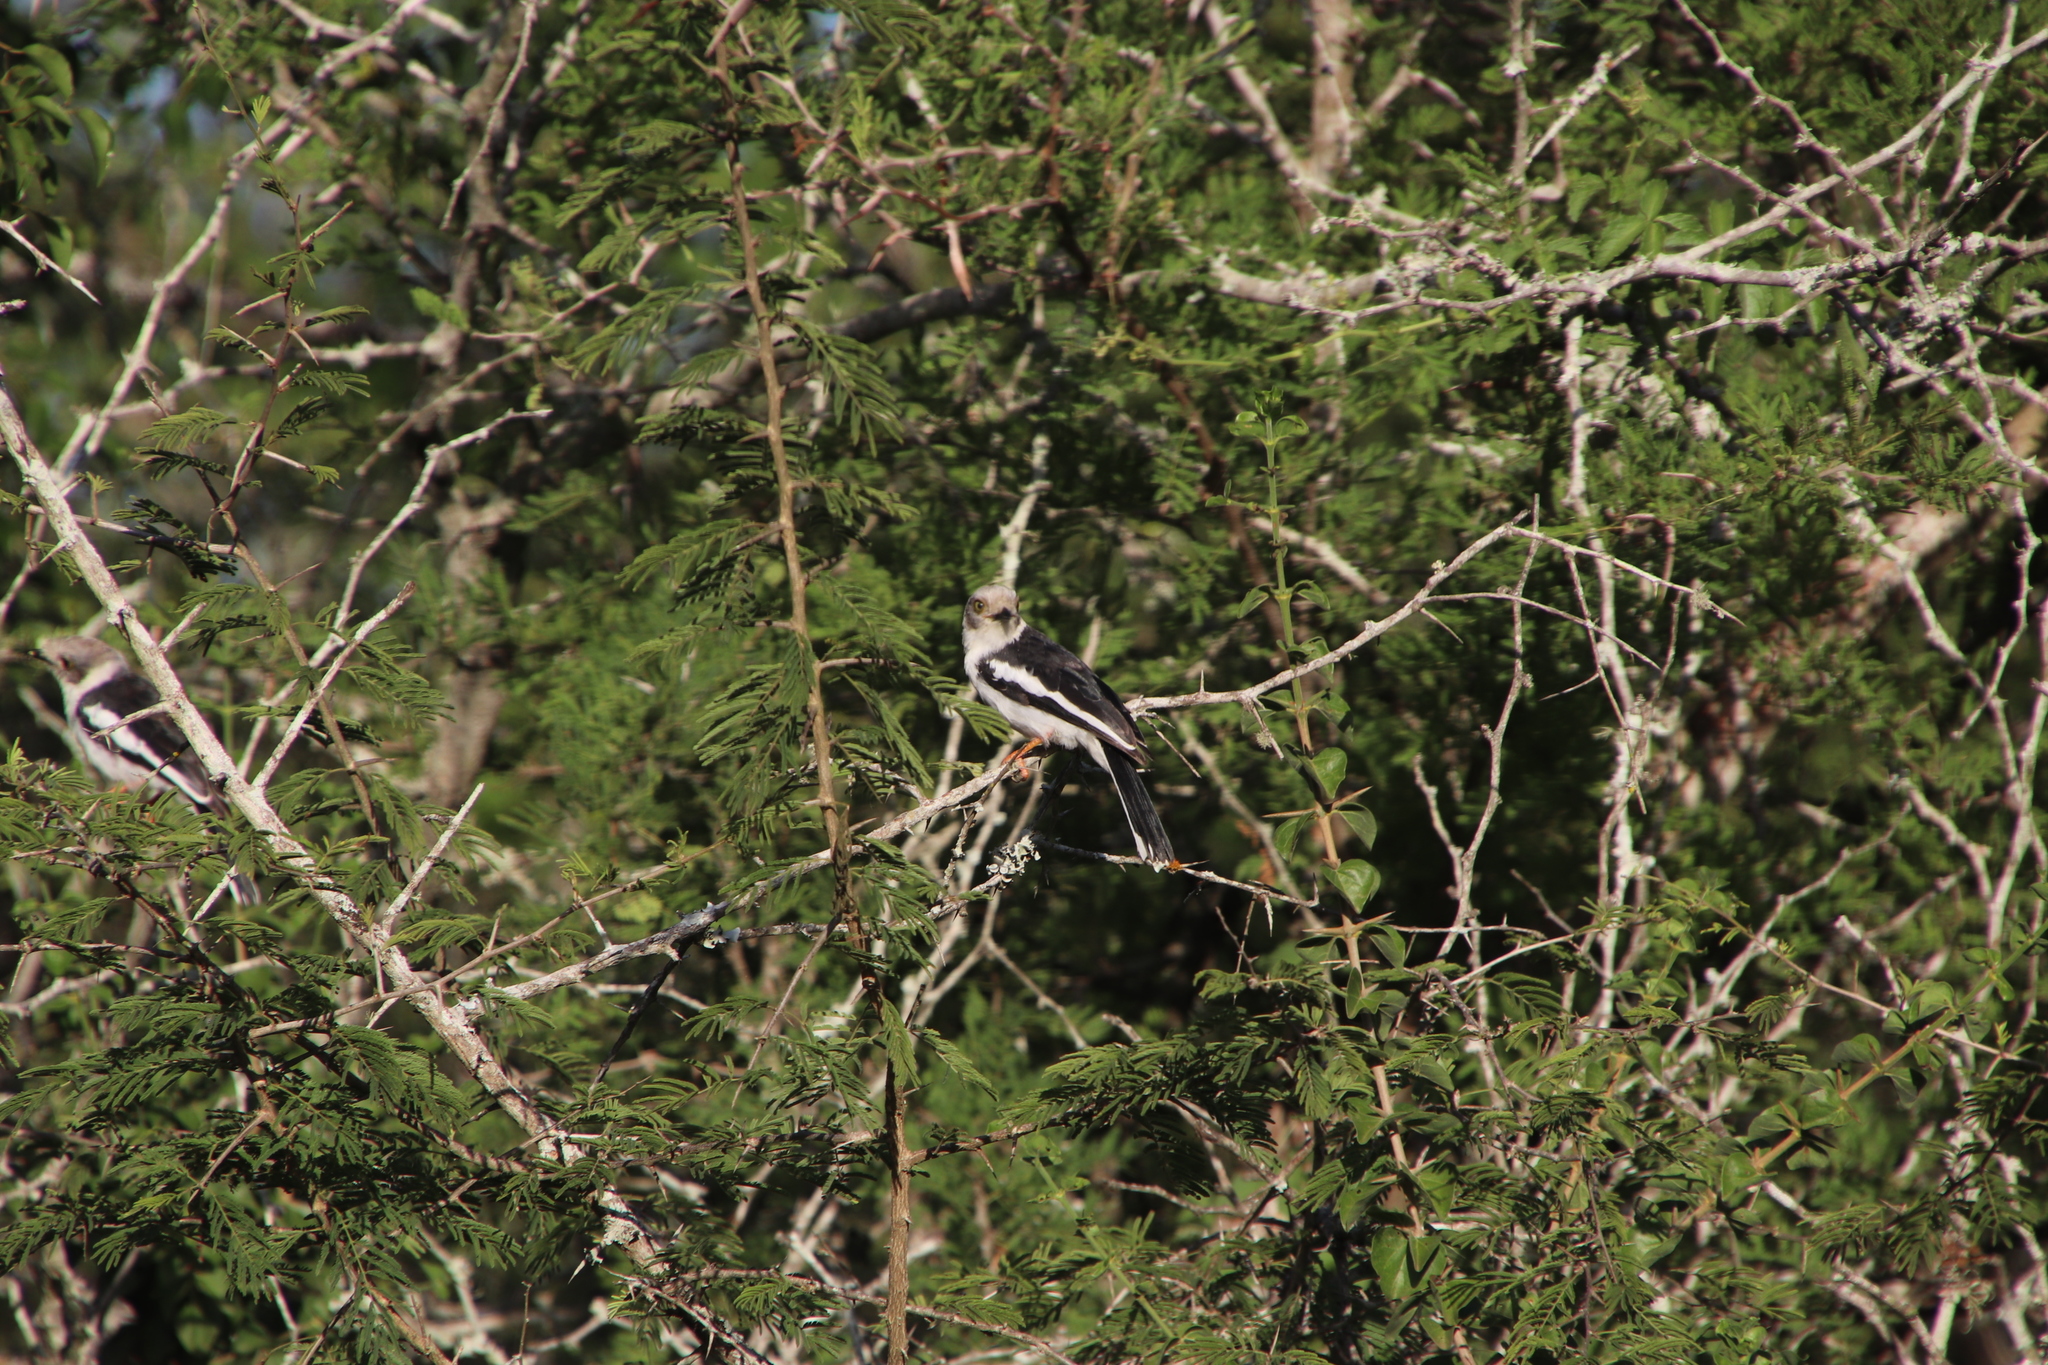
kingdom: Animalia
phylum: Chordata
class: Aves
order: Passeriformes
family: Prionopidae
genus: Prionops
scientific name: Prionops plumatus
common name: White-crested helmetshrike
